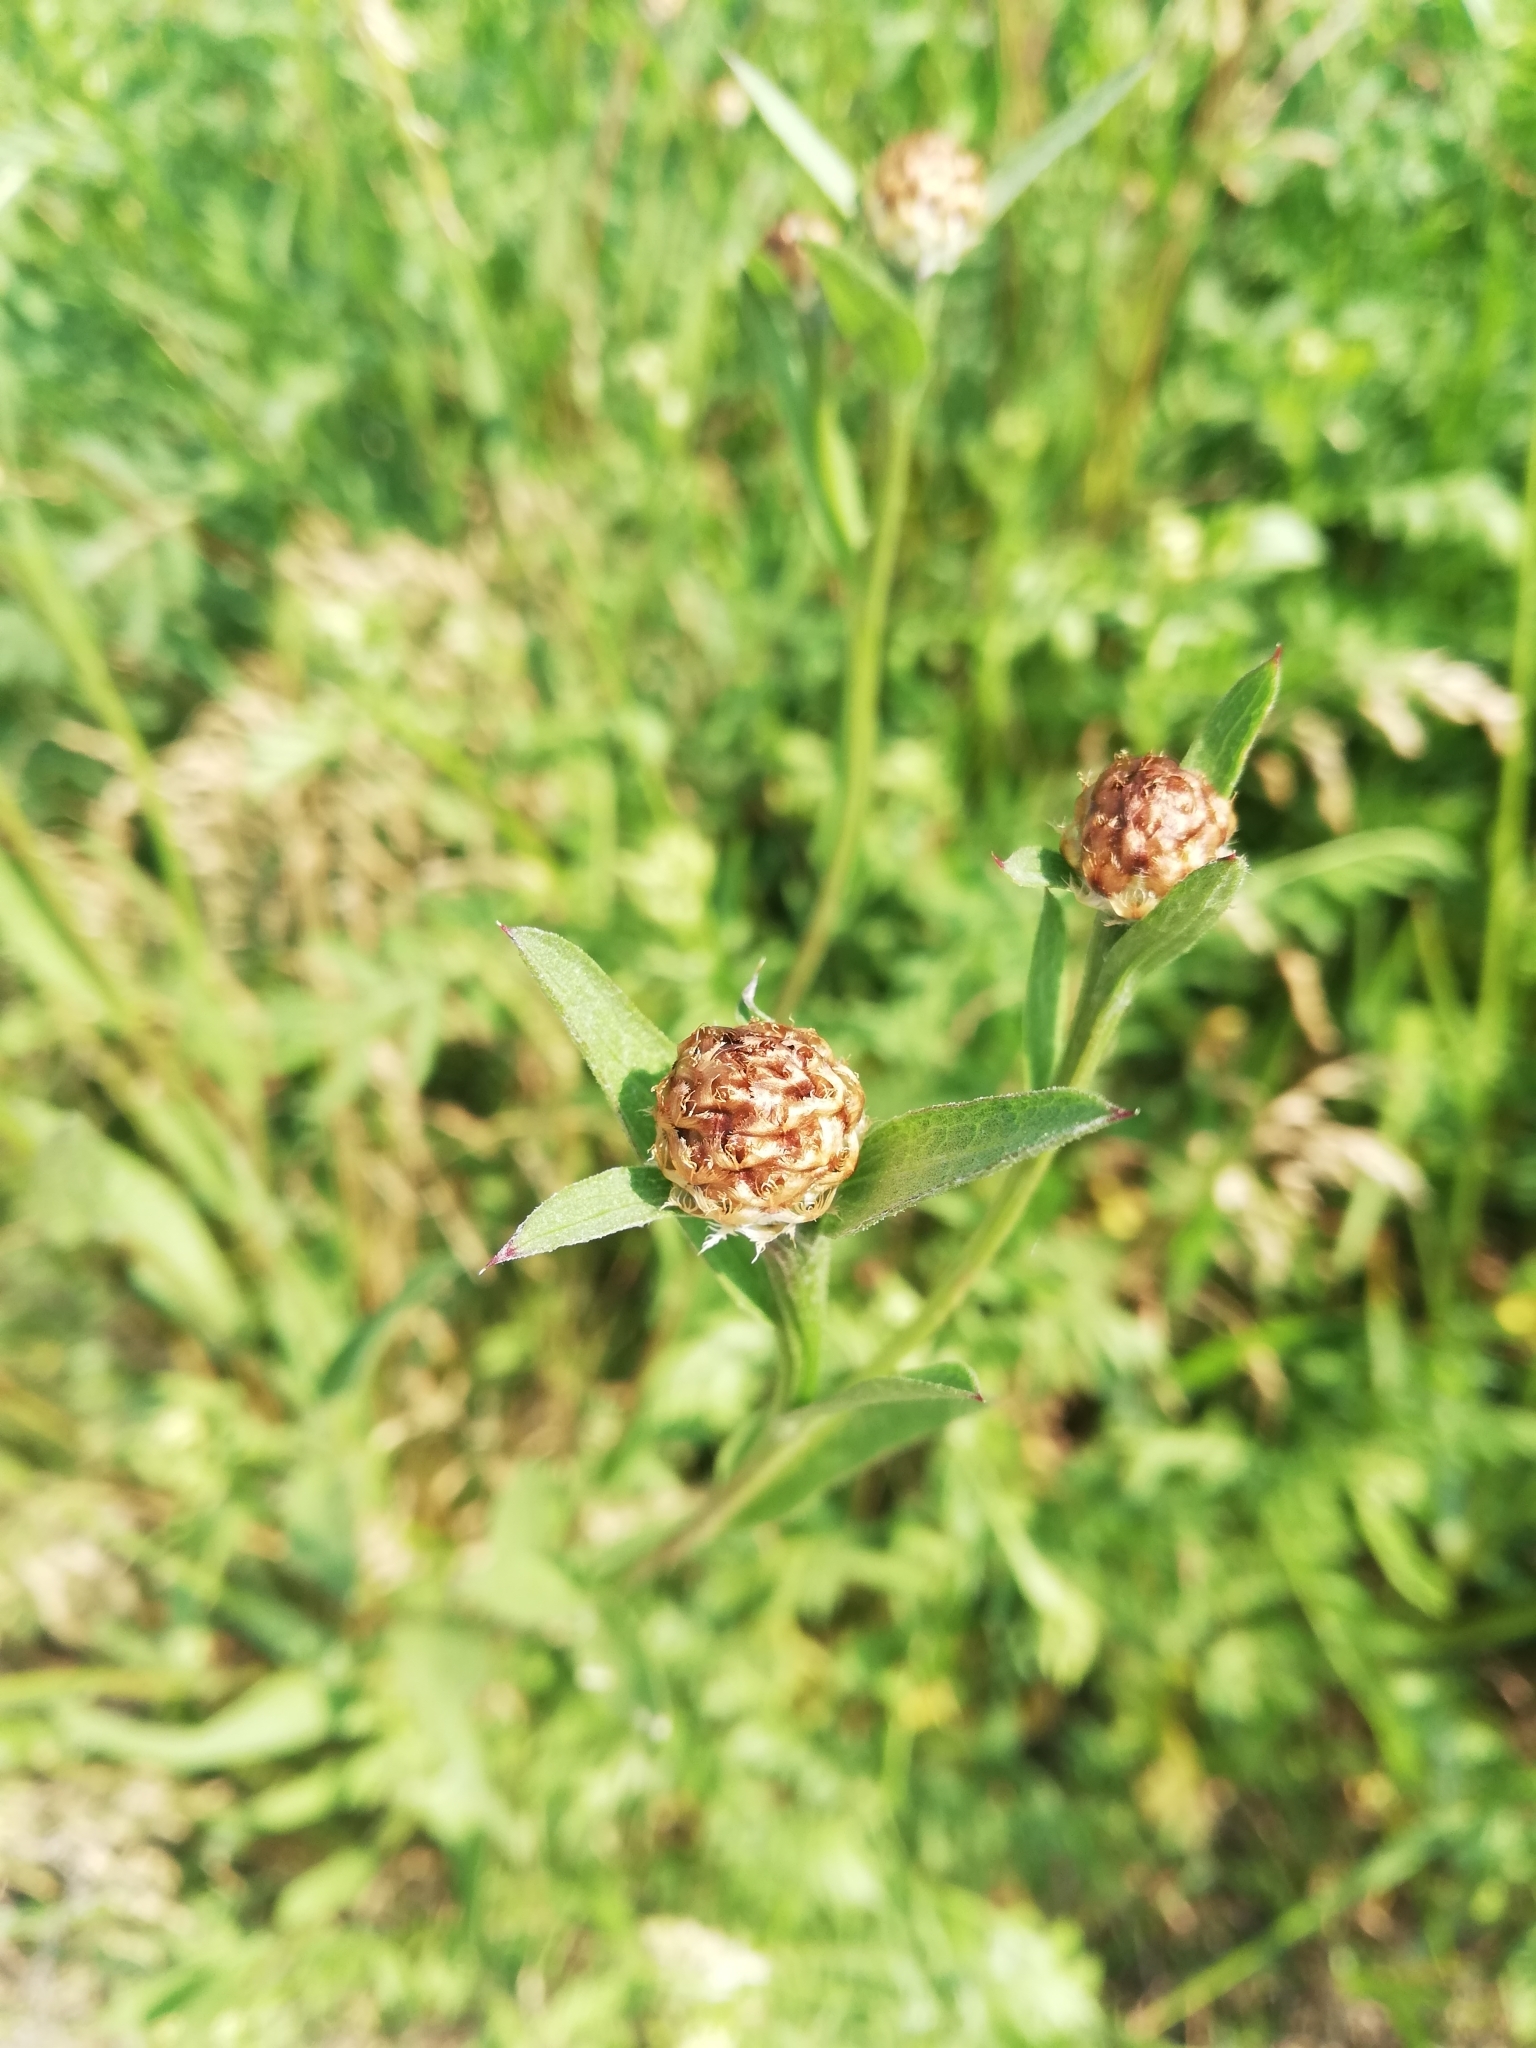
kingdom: Plantae
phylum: Tracheophyta
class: Magnoliopsida
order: Asterales
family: Asteraceae
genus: Centaurea
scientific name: Centaurea jacea
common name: Brown knapweed
